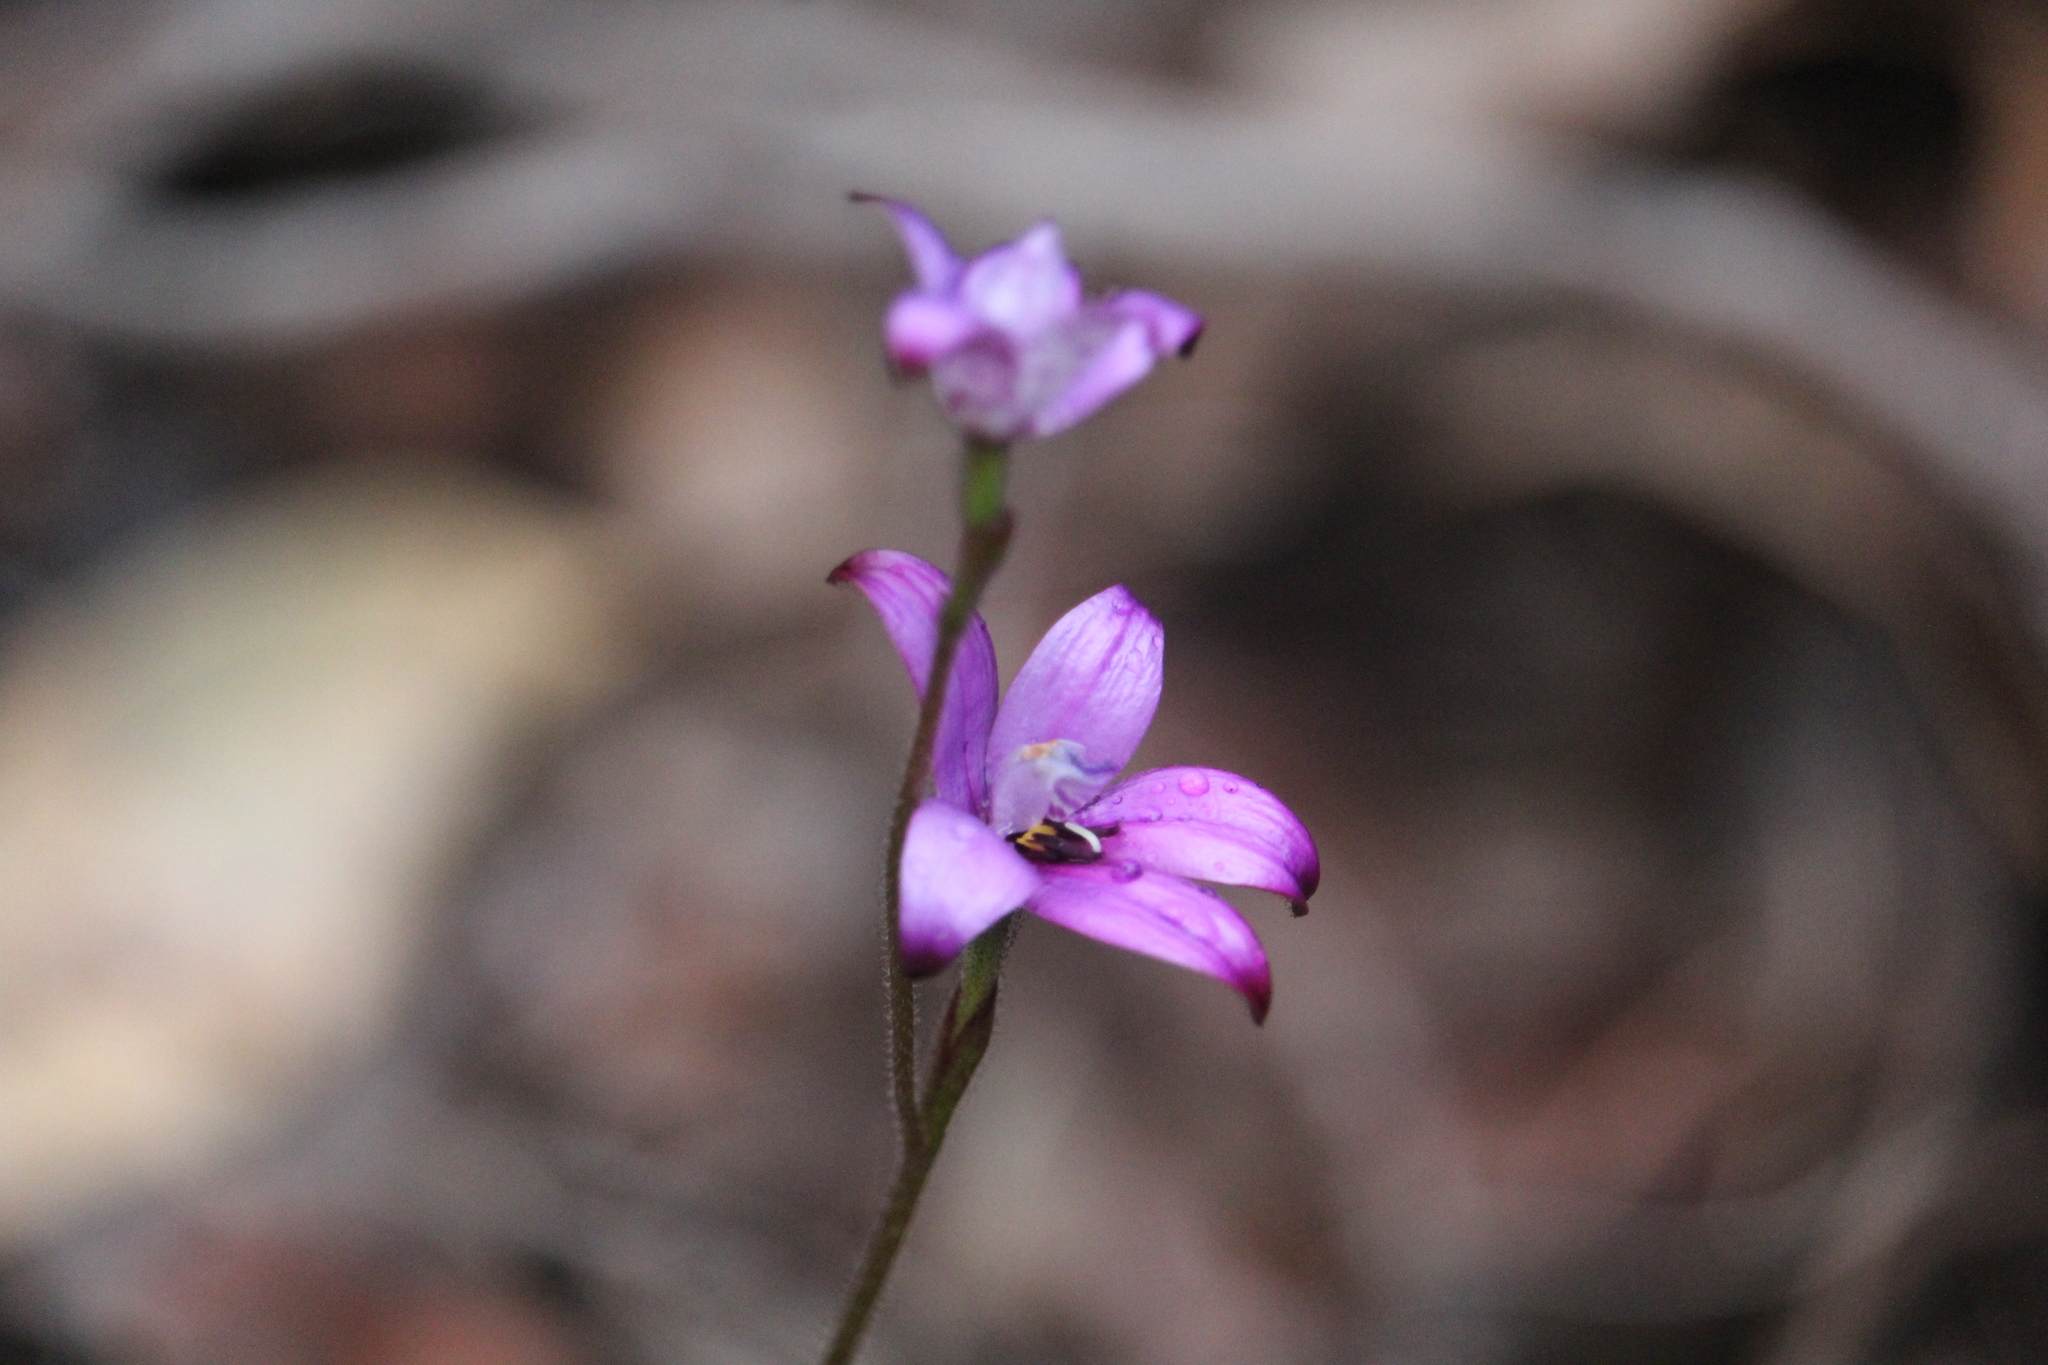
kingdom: Plantae
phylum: Tracheophyta
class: Liliopsida
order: Asparagales
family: Orchidaceae
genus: Caladenia
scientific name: Caladenia brunonis
